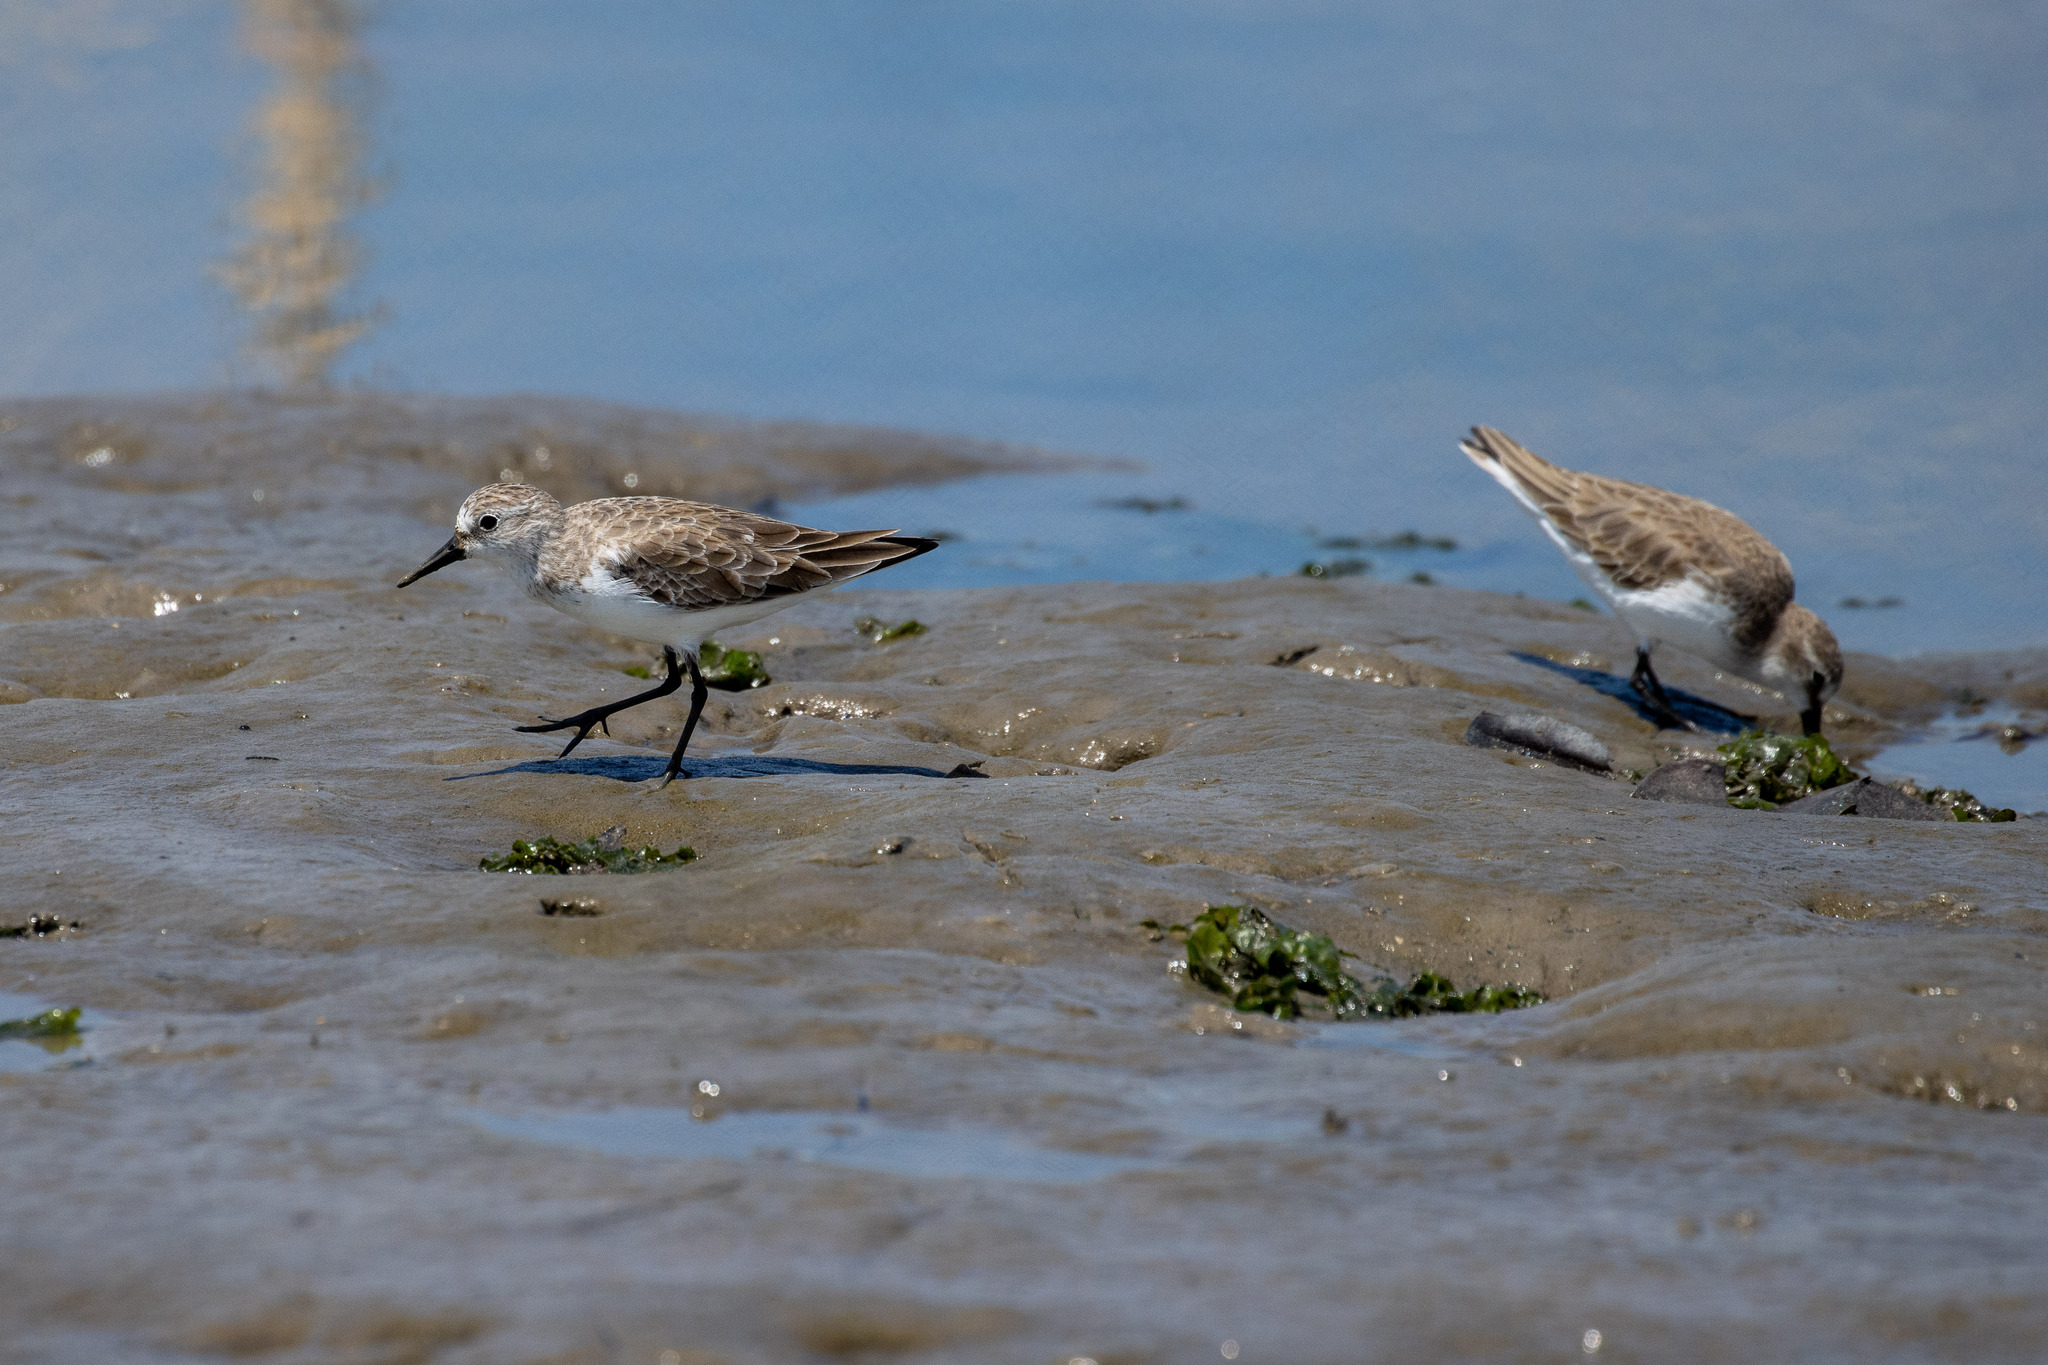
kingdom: Animalia
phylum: Chordata
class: Aves
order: Charadriiformes
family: Scolopacidae
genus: Calidris
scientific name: Calidris pusilla
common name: Semipalmated sandpiper
